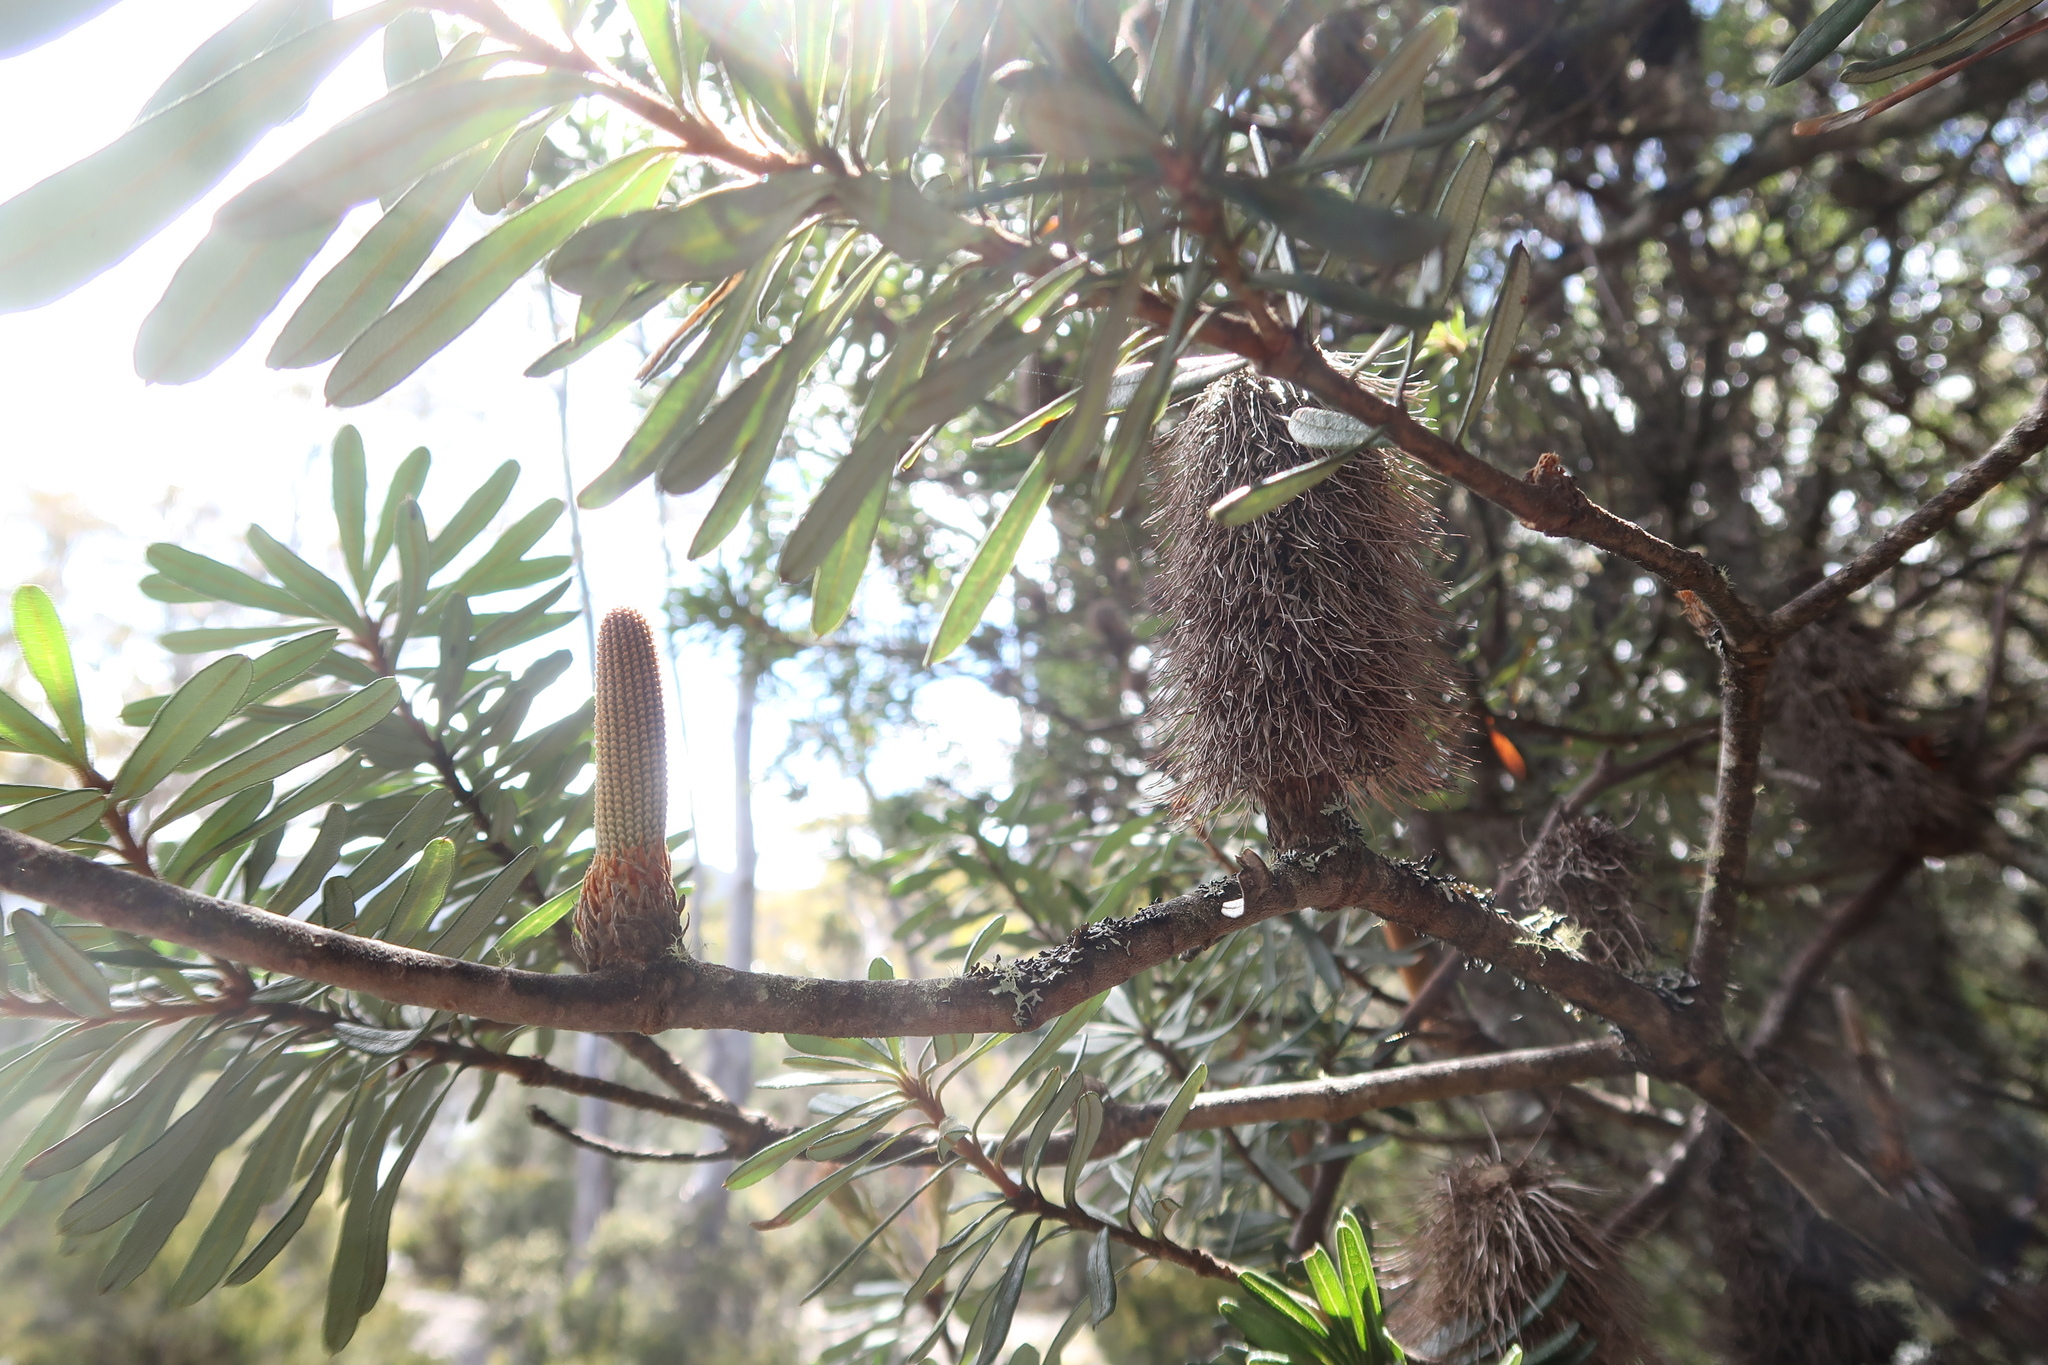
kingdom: Plantae
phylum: Tracheophyta
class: Magnoliopsida
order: Proteales
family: Proteaceae
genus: Banksia
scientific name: Banksia marginata
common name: Silver banksia
